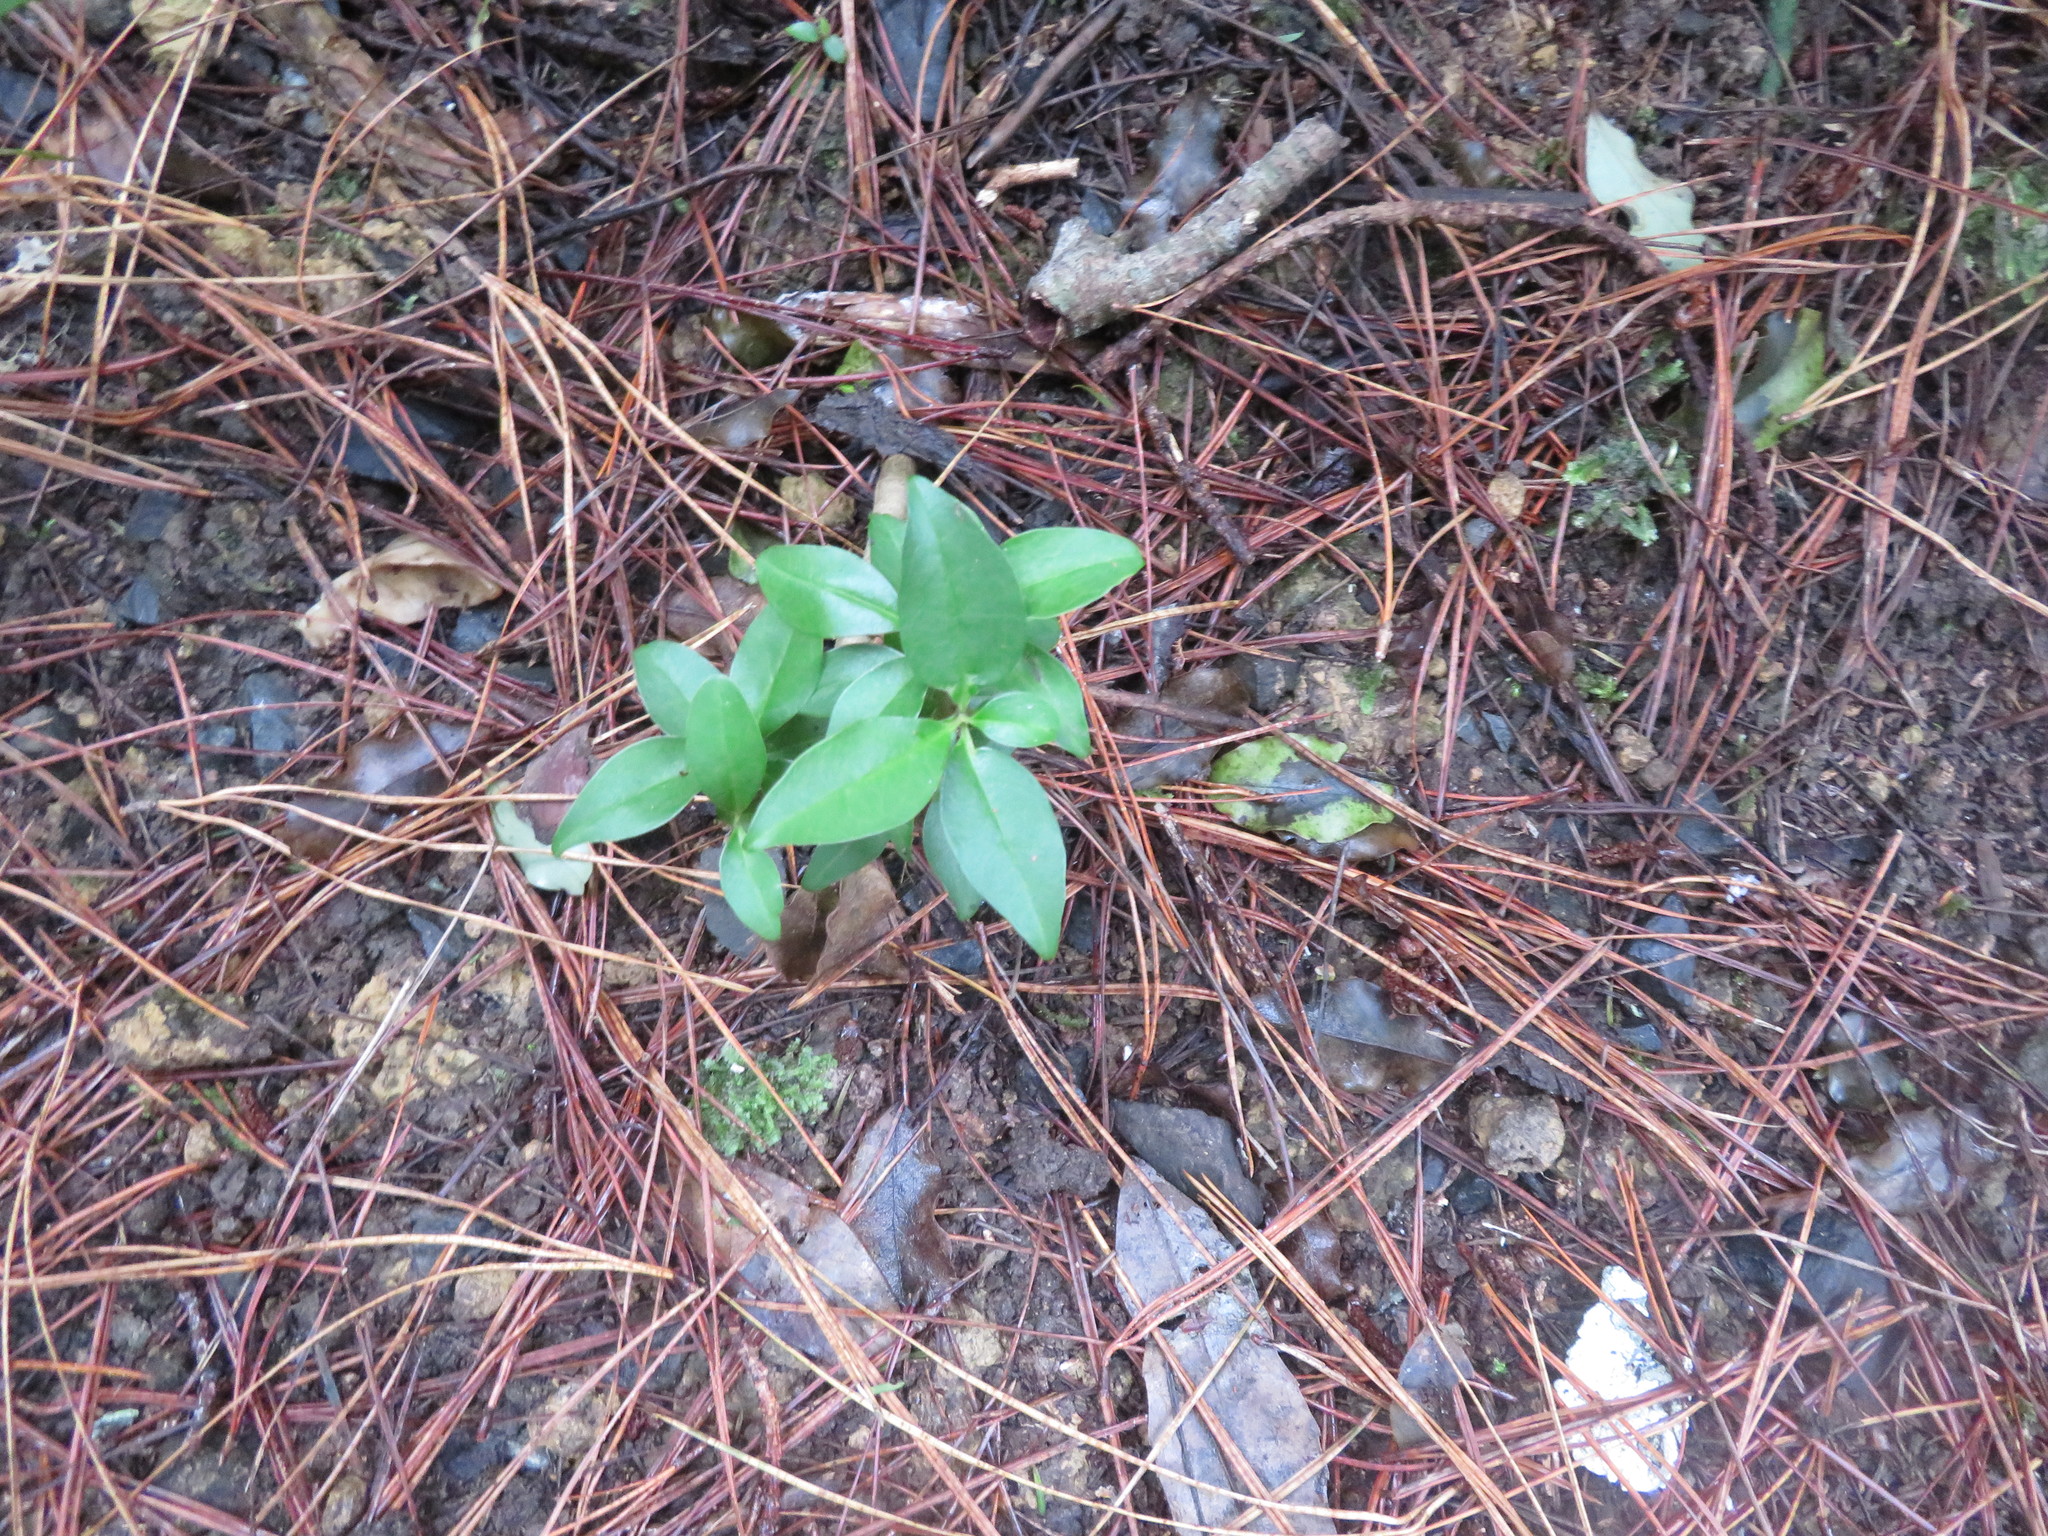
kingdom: Plantae
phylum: Tracheophyta
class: Magnoliopsida
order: Lamiales
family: Oleaceae
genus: Ligustrum
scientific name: Ligustrum lucidum
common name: Glossy privet
